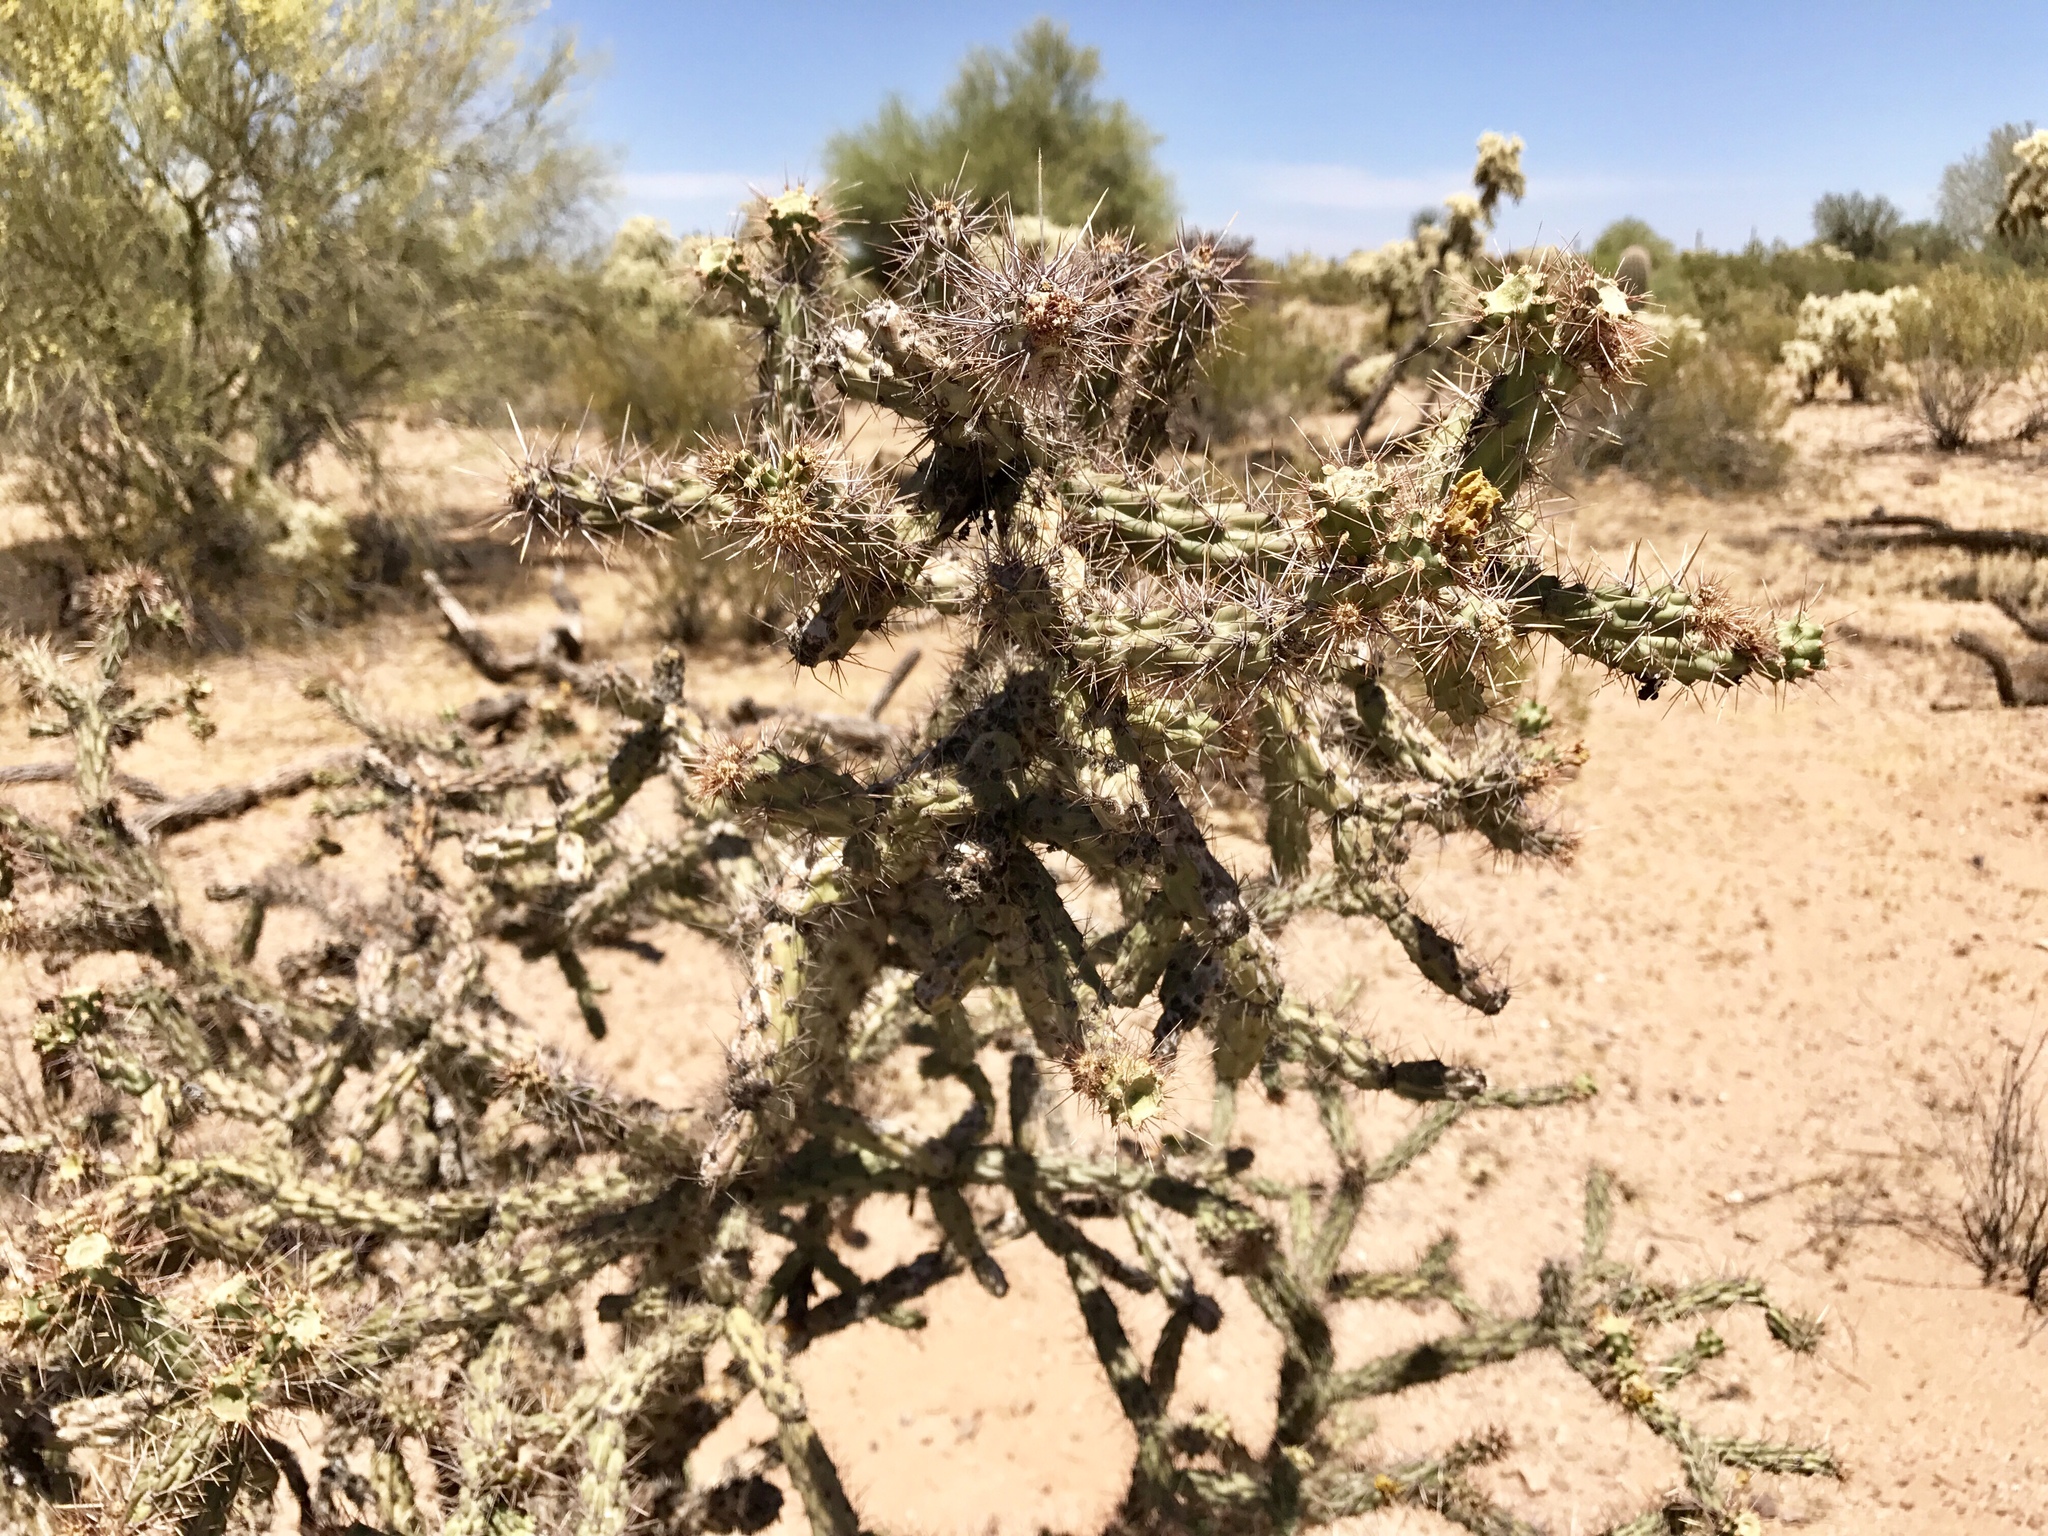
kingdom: Plantae
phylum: Tracheophyta
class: Magnoliopsida
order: Caryophyllales
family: Cactaceae
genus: Cylindropuntia
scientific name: Cylindropuntia acanthocarpa
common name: Buckhorn cholla
